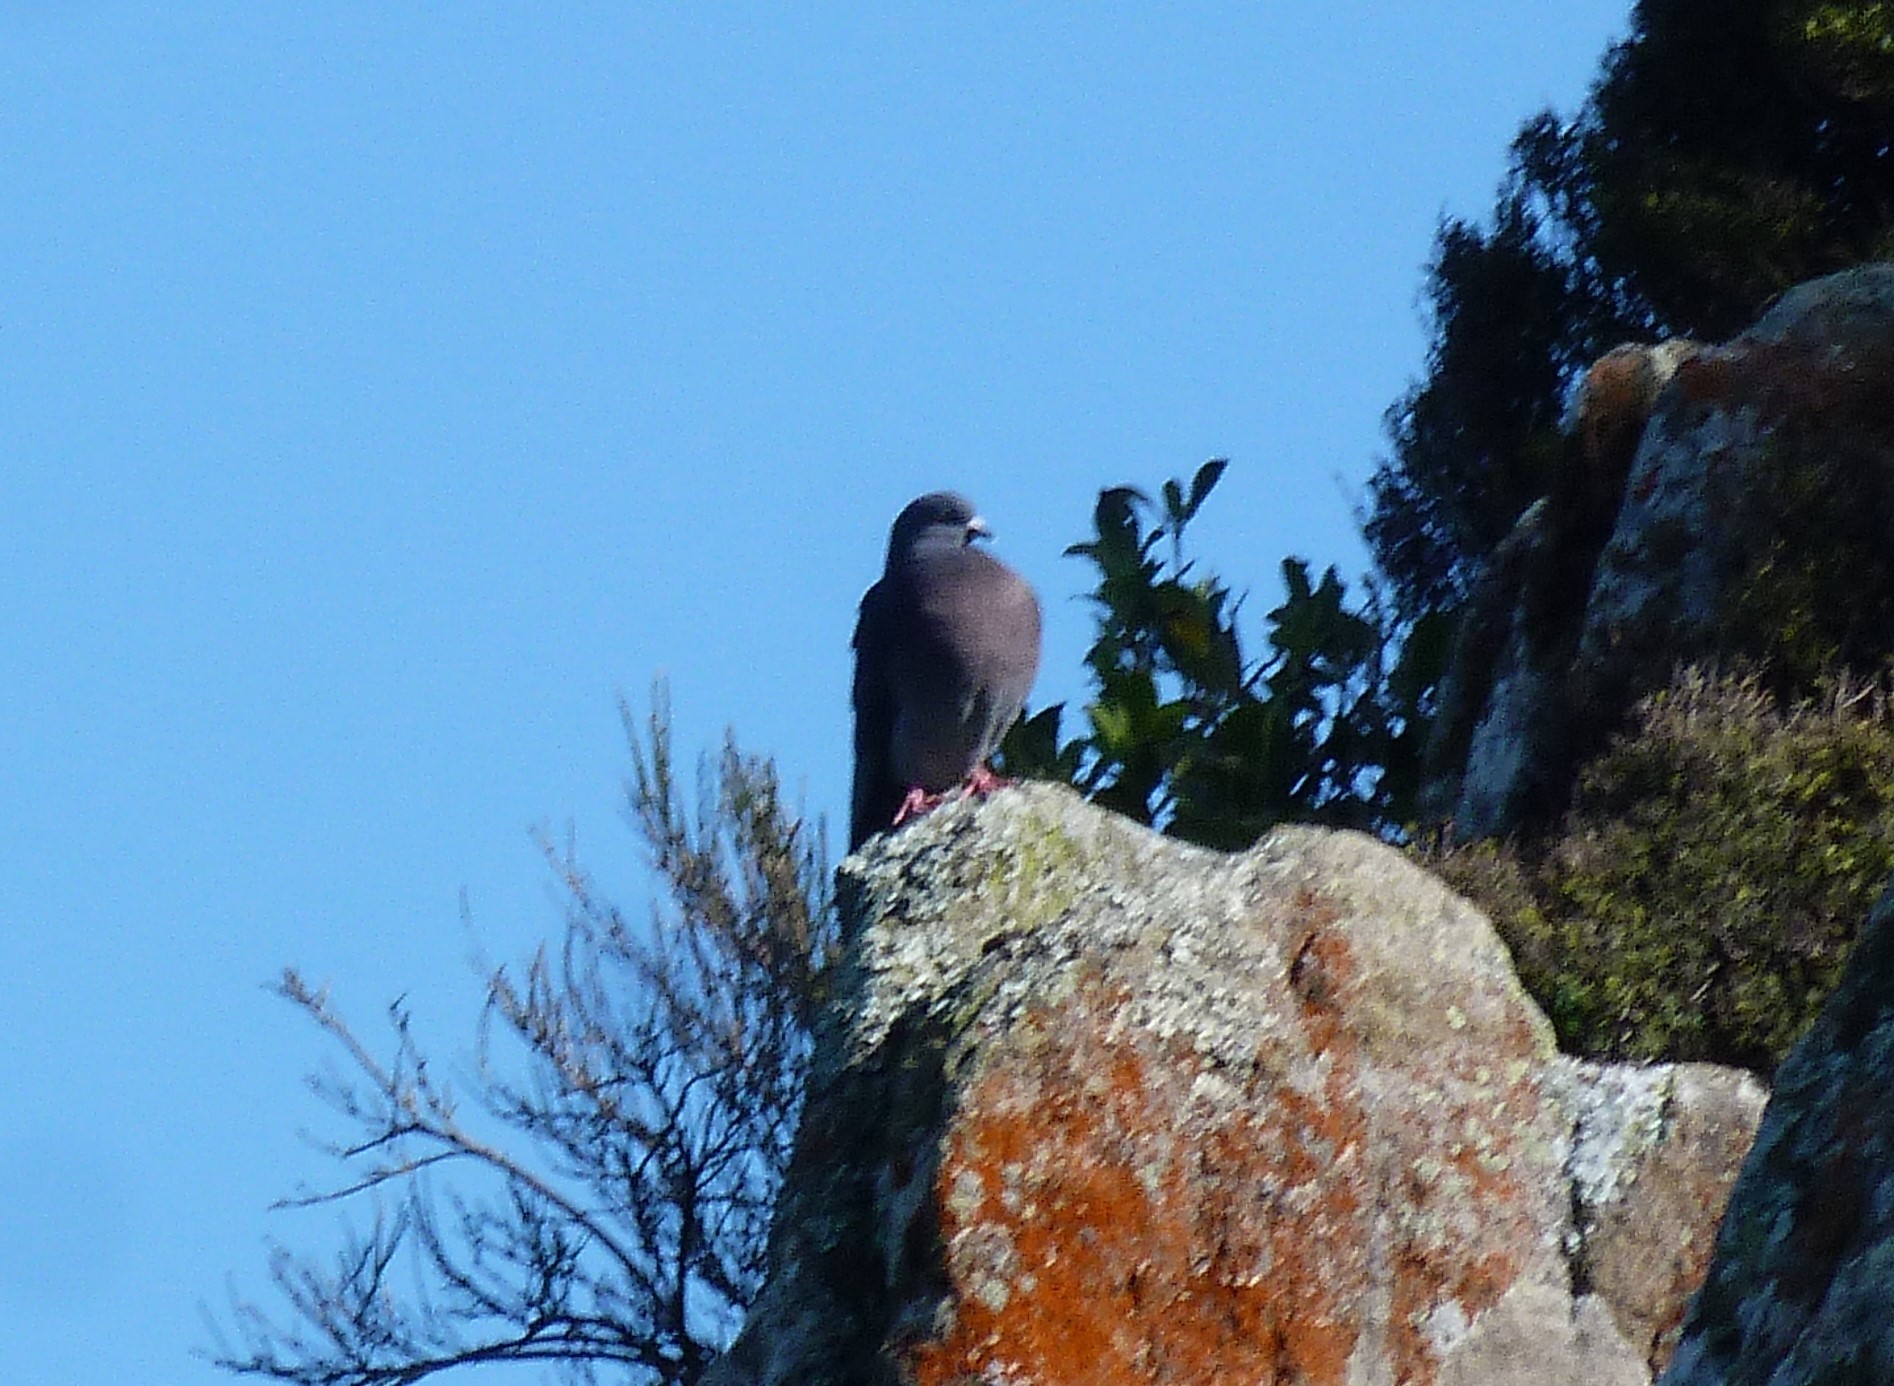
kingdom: Animalia
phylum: Chordata
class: Aves
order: Columbiformes
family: Columbidae
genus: Columba
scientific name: Columba livia
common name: Rock pigeon
